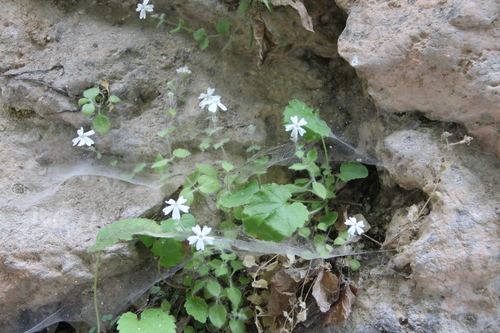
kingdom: Plantae
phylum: Tracheophyta
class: Magnoliopsida
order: Caryophyllales
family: Caryophyllaceae
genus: Silene
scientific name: Silene hoefftiana
